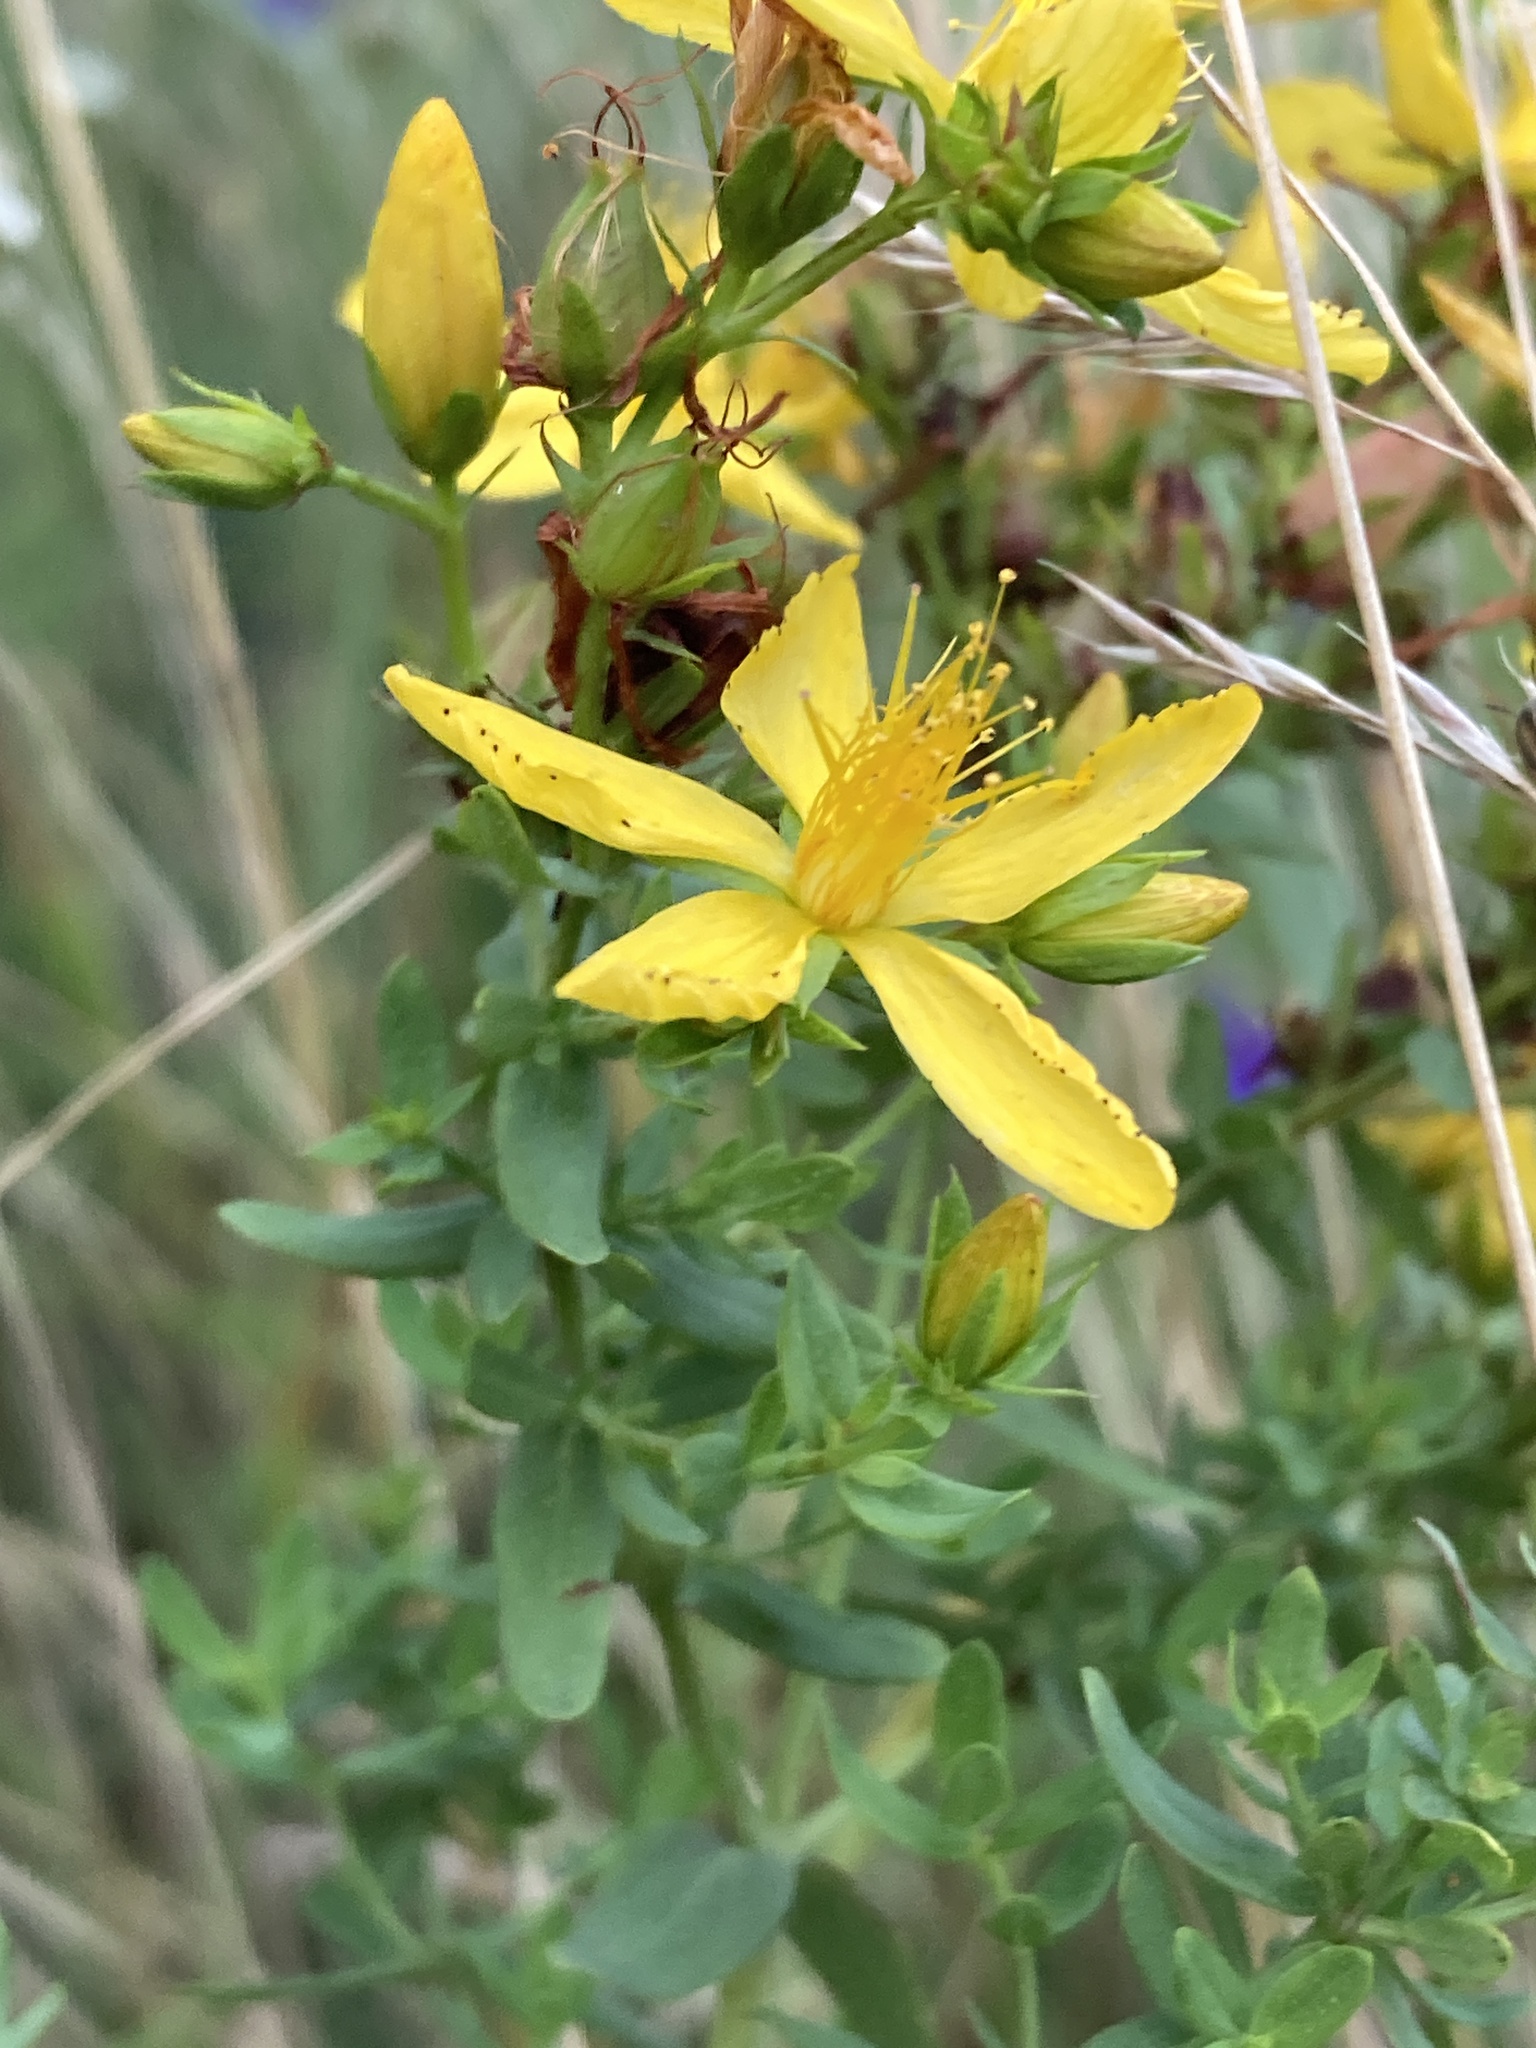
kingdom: Plantae
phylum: Tracheophyta
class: Magnoliopsida
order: Malpighiales
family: Hypericaceae
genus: Hypericum
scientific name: Hypericum perforatum
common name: Common st. johnswort
